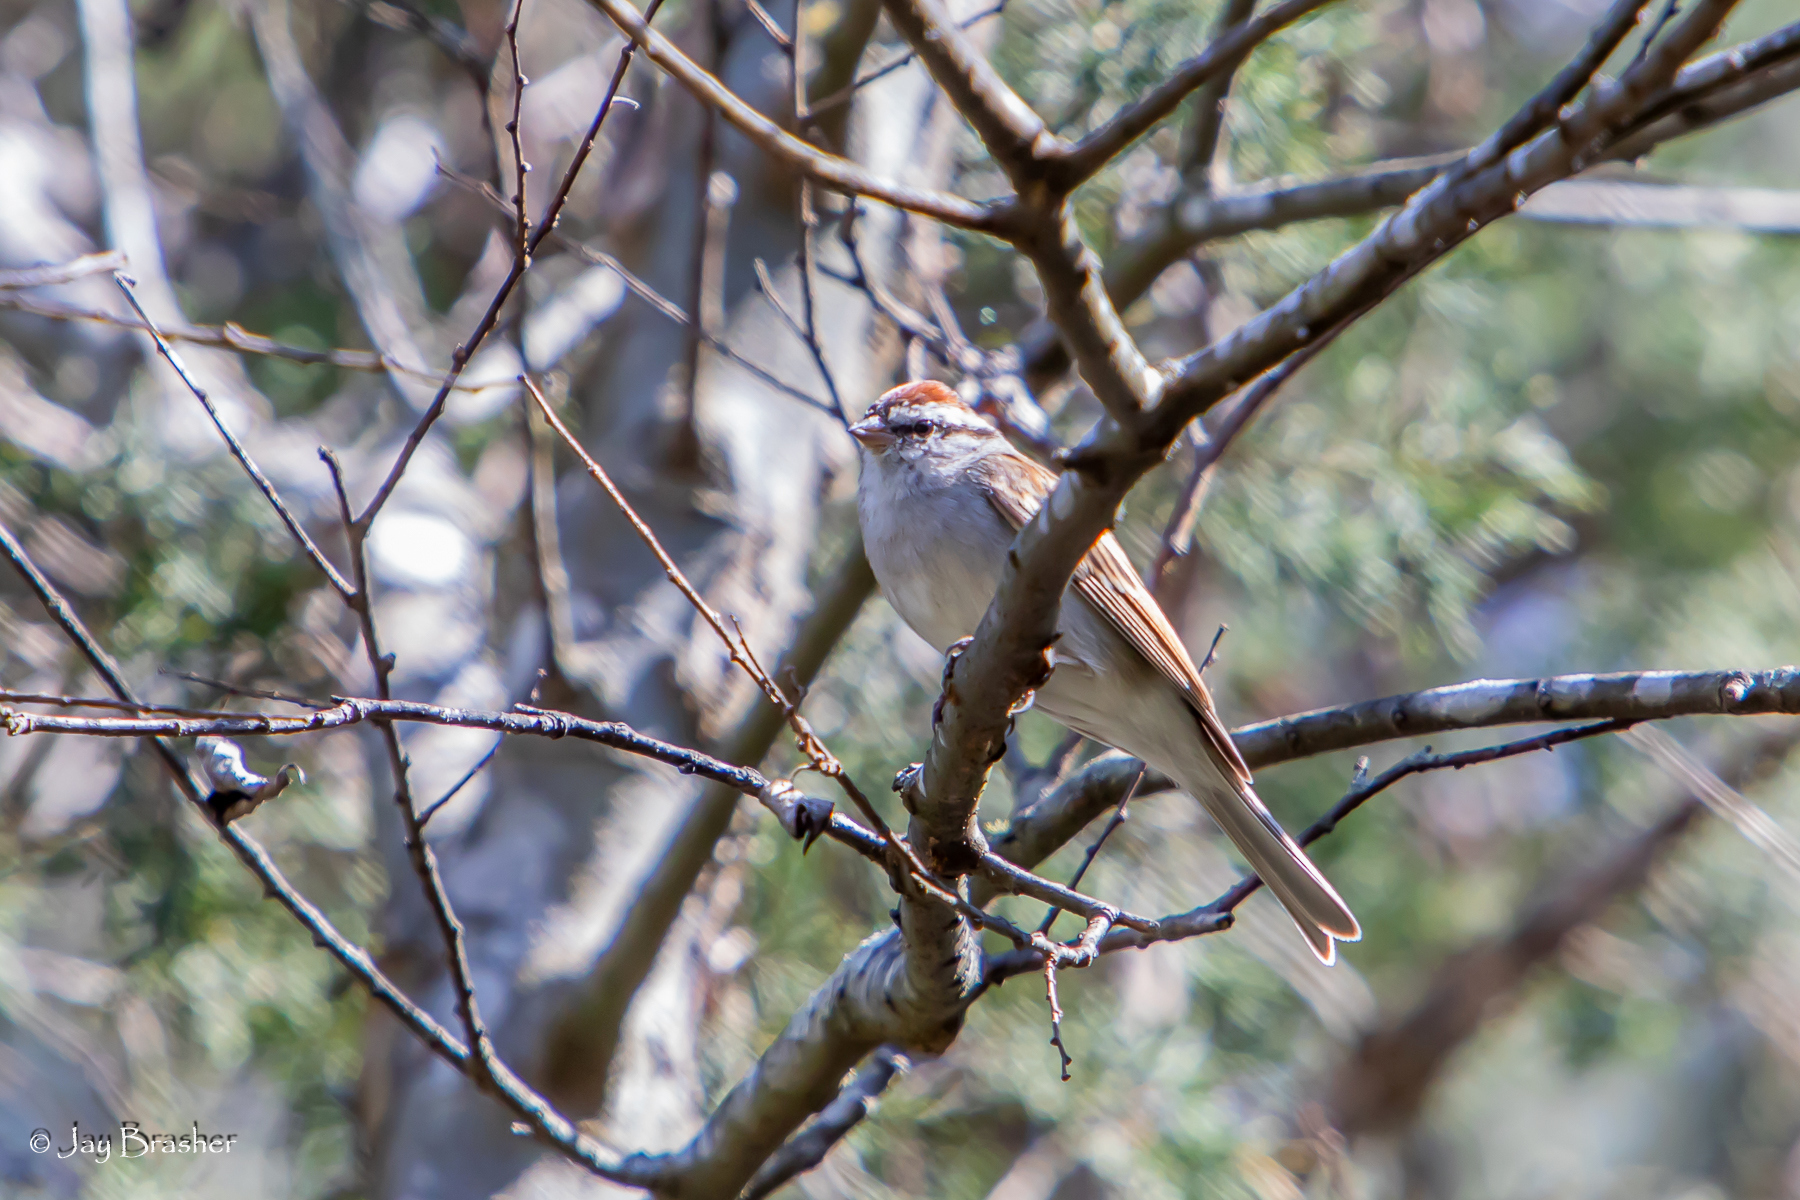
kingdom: Animalia
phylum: Chordata
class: Aves
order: Passeriformes
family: Passerellidae
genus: Spizella
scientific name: Spizella passerina
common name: Chipping sparrow
